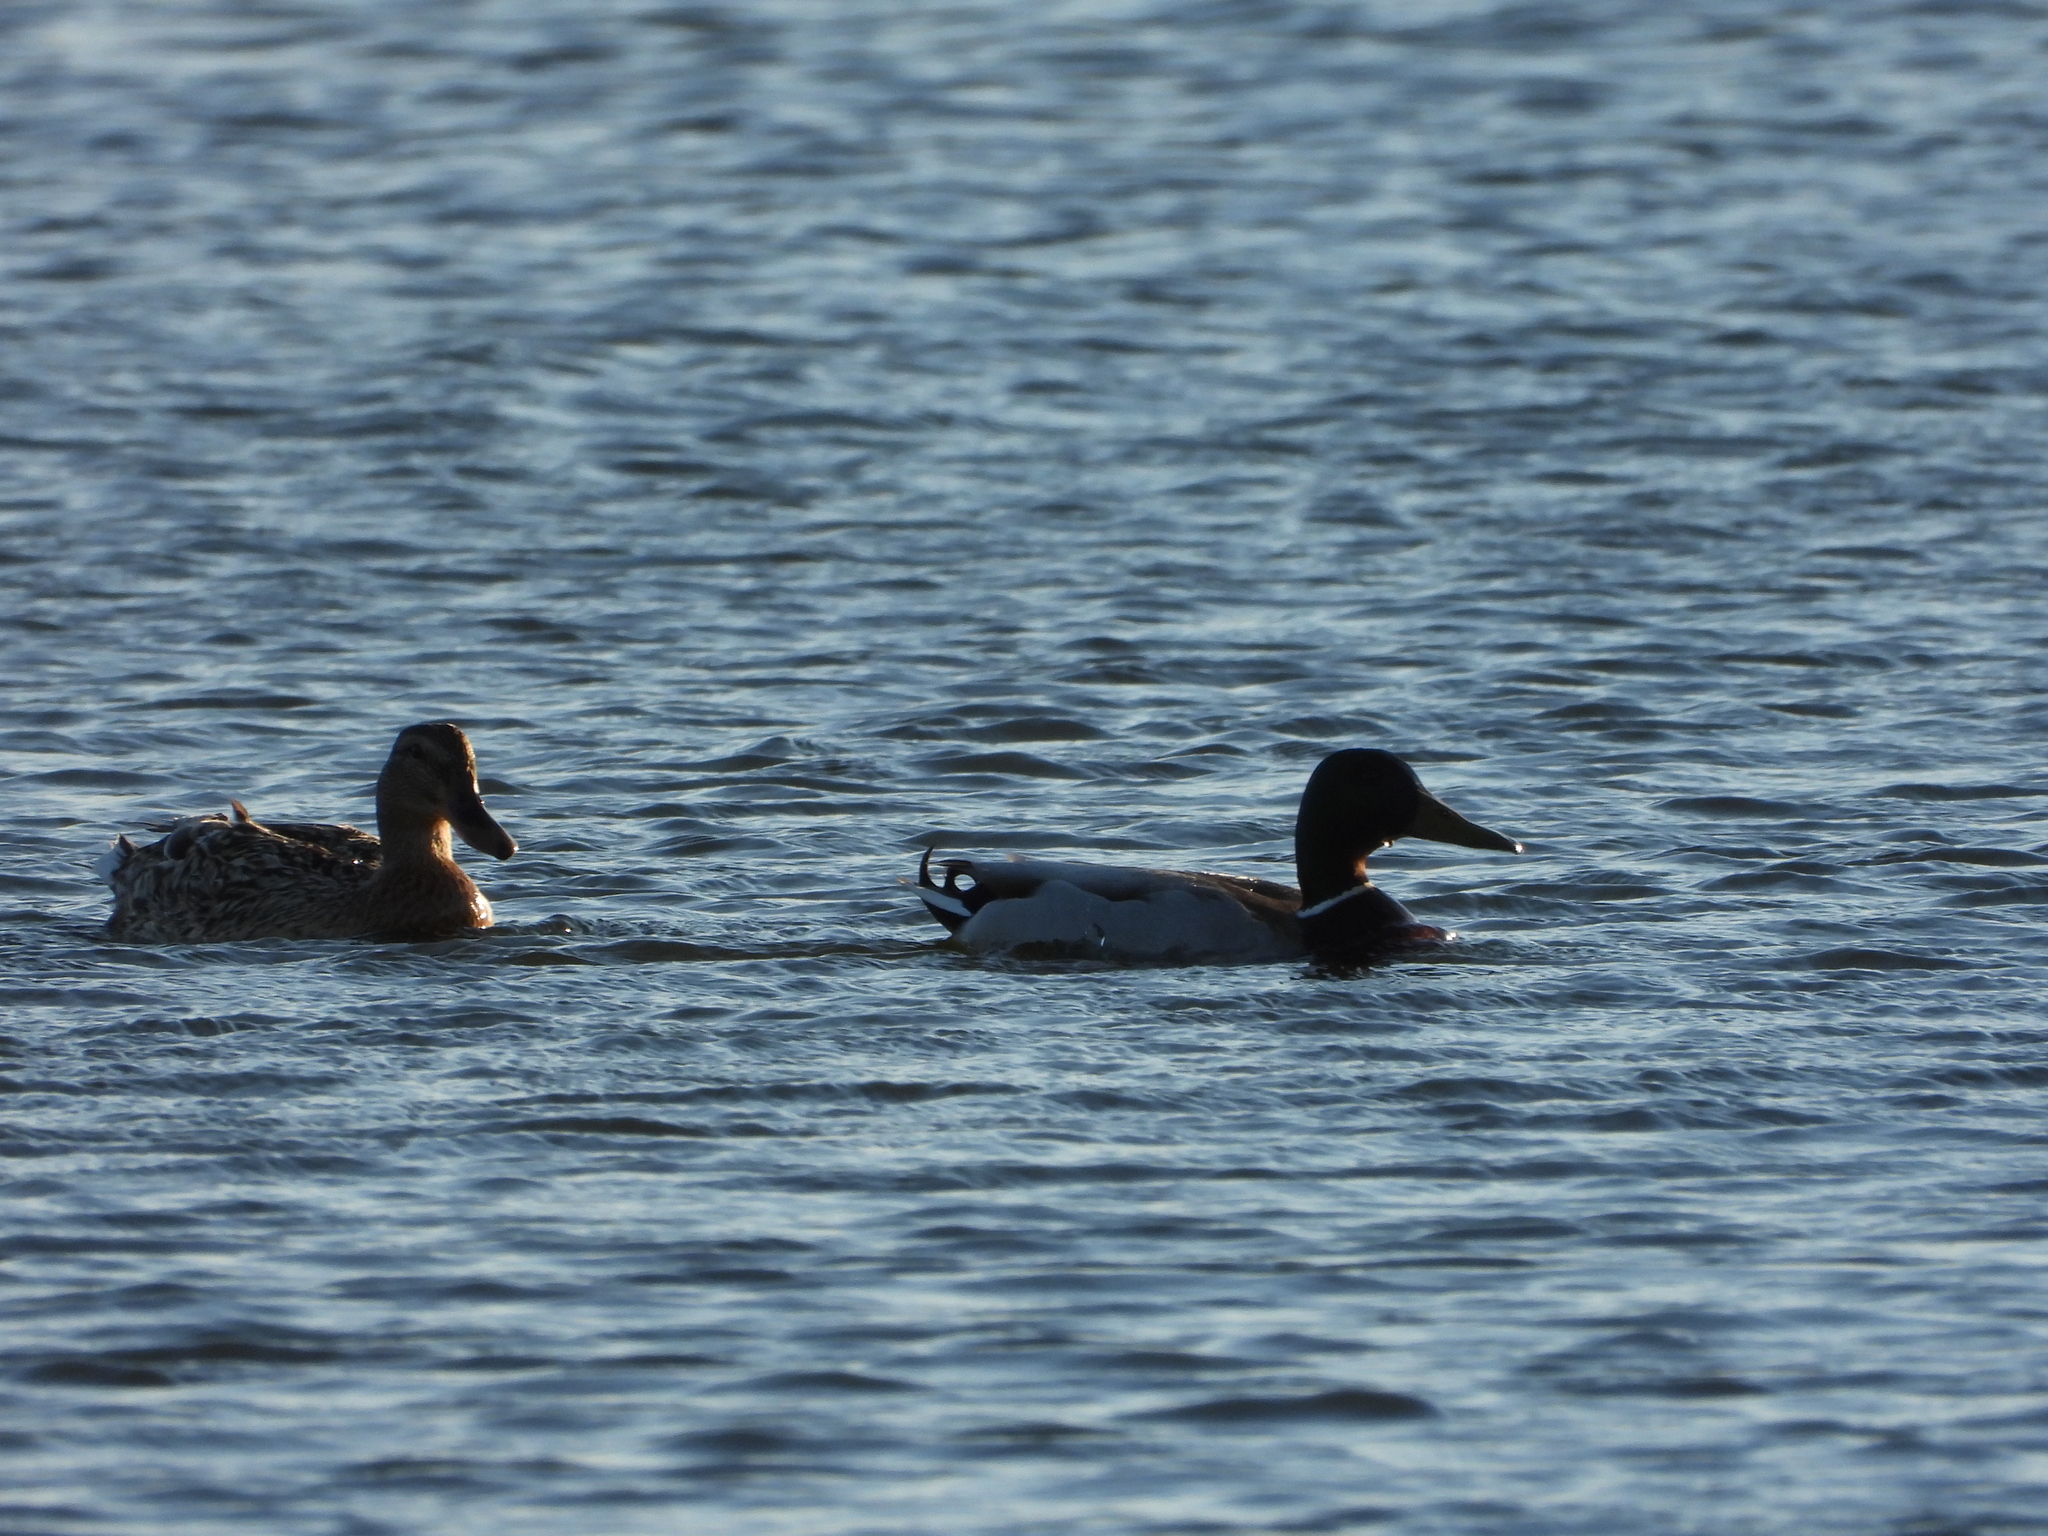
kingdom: Animalia
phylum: Chordata
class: Aves
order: Anseriformes
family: Anatidae
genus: Anas
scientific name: Anas platyrhynchos
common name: Mallard
